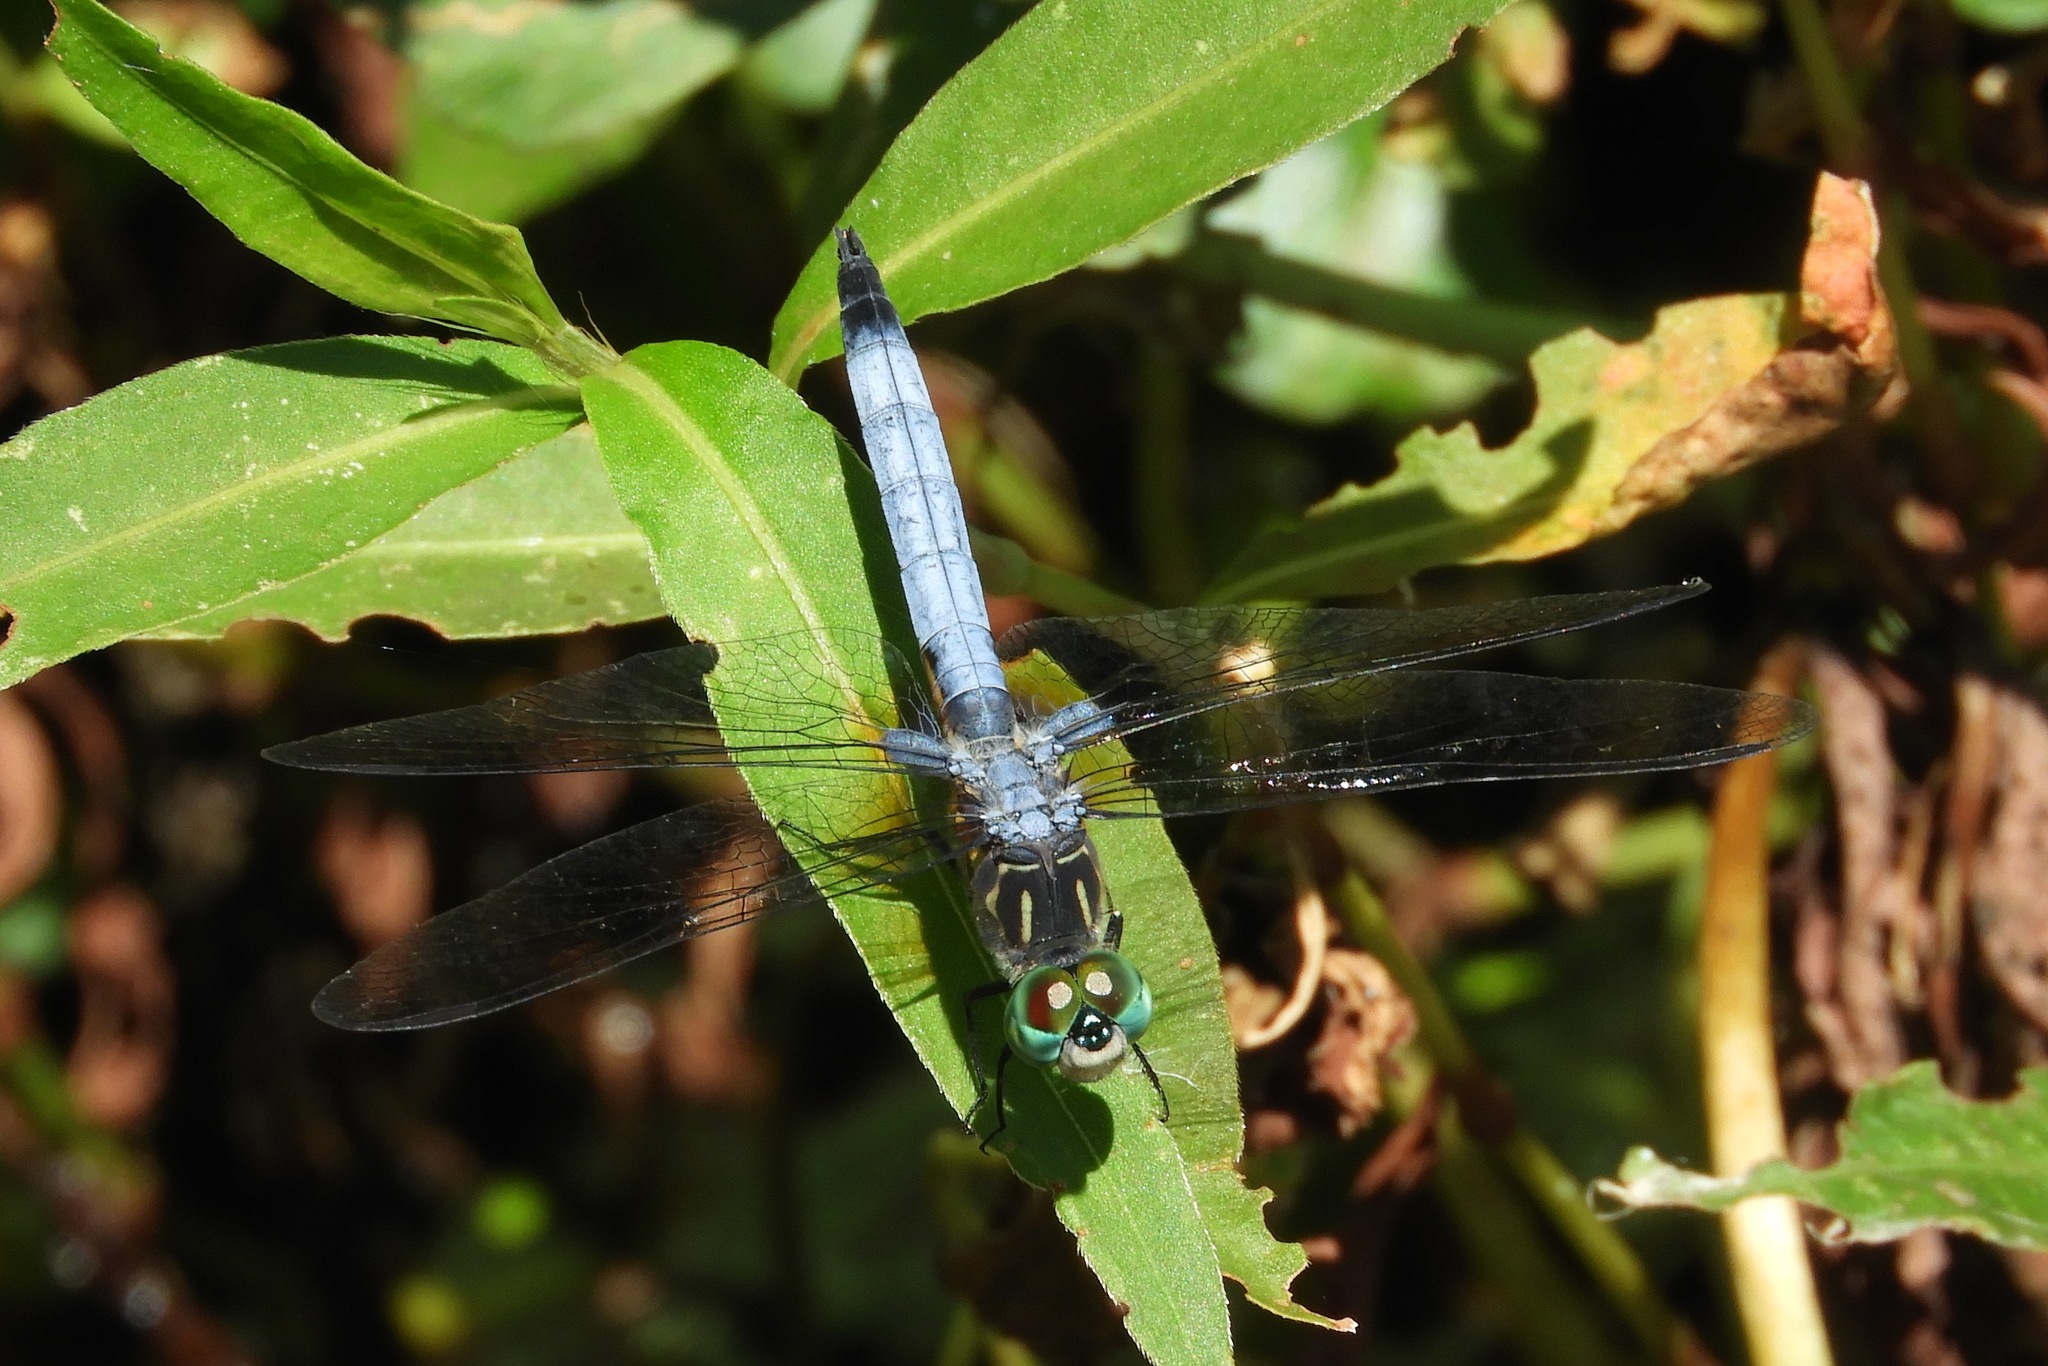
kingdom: Animalia
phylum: Arthropoda
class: Insecta
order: Odonata
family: Libellulidae
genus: Pachydiplax
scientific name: Pachydiplax longipennis
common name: Blue dasher
